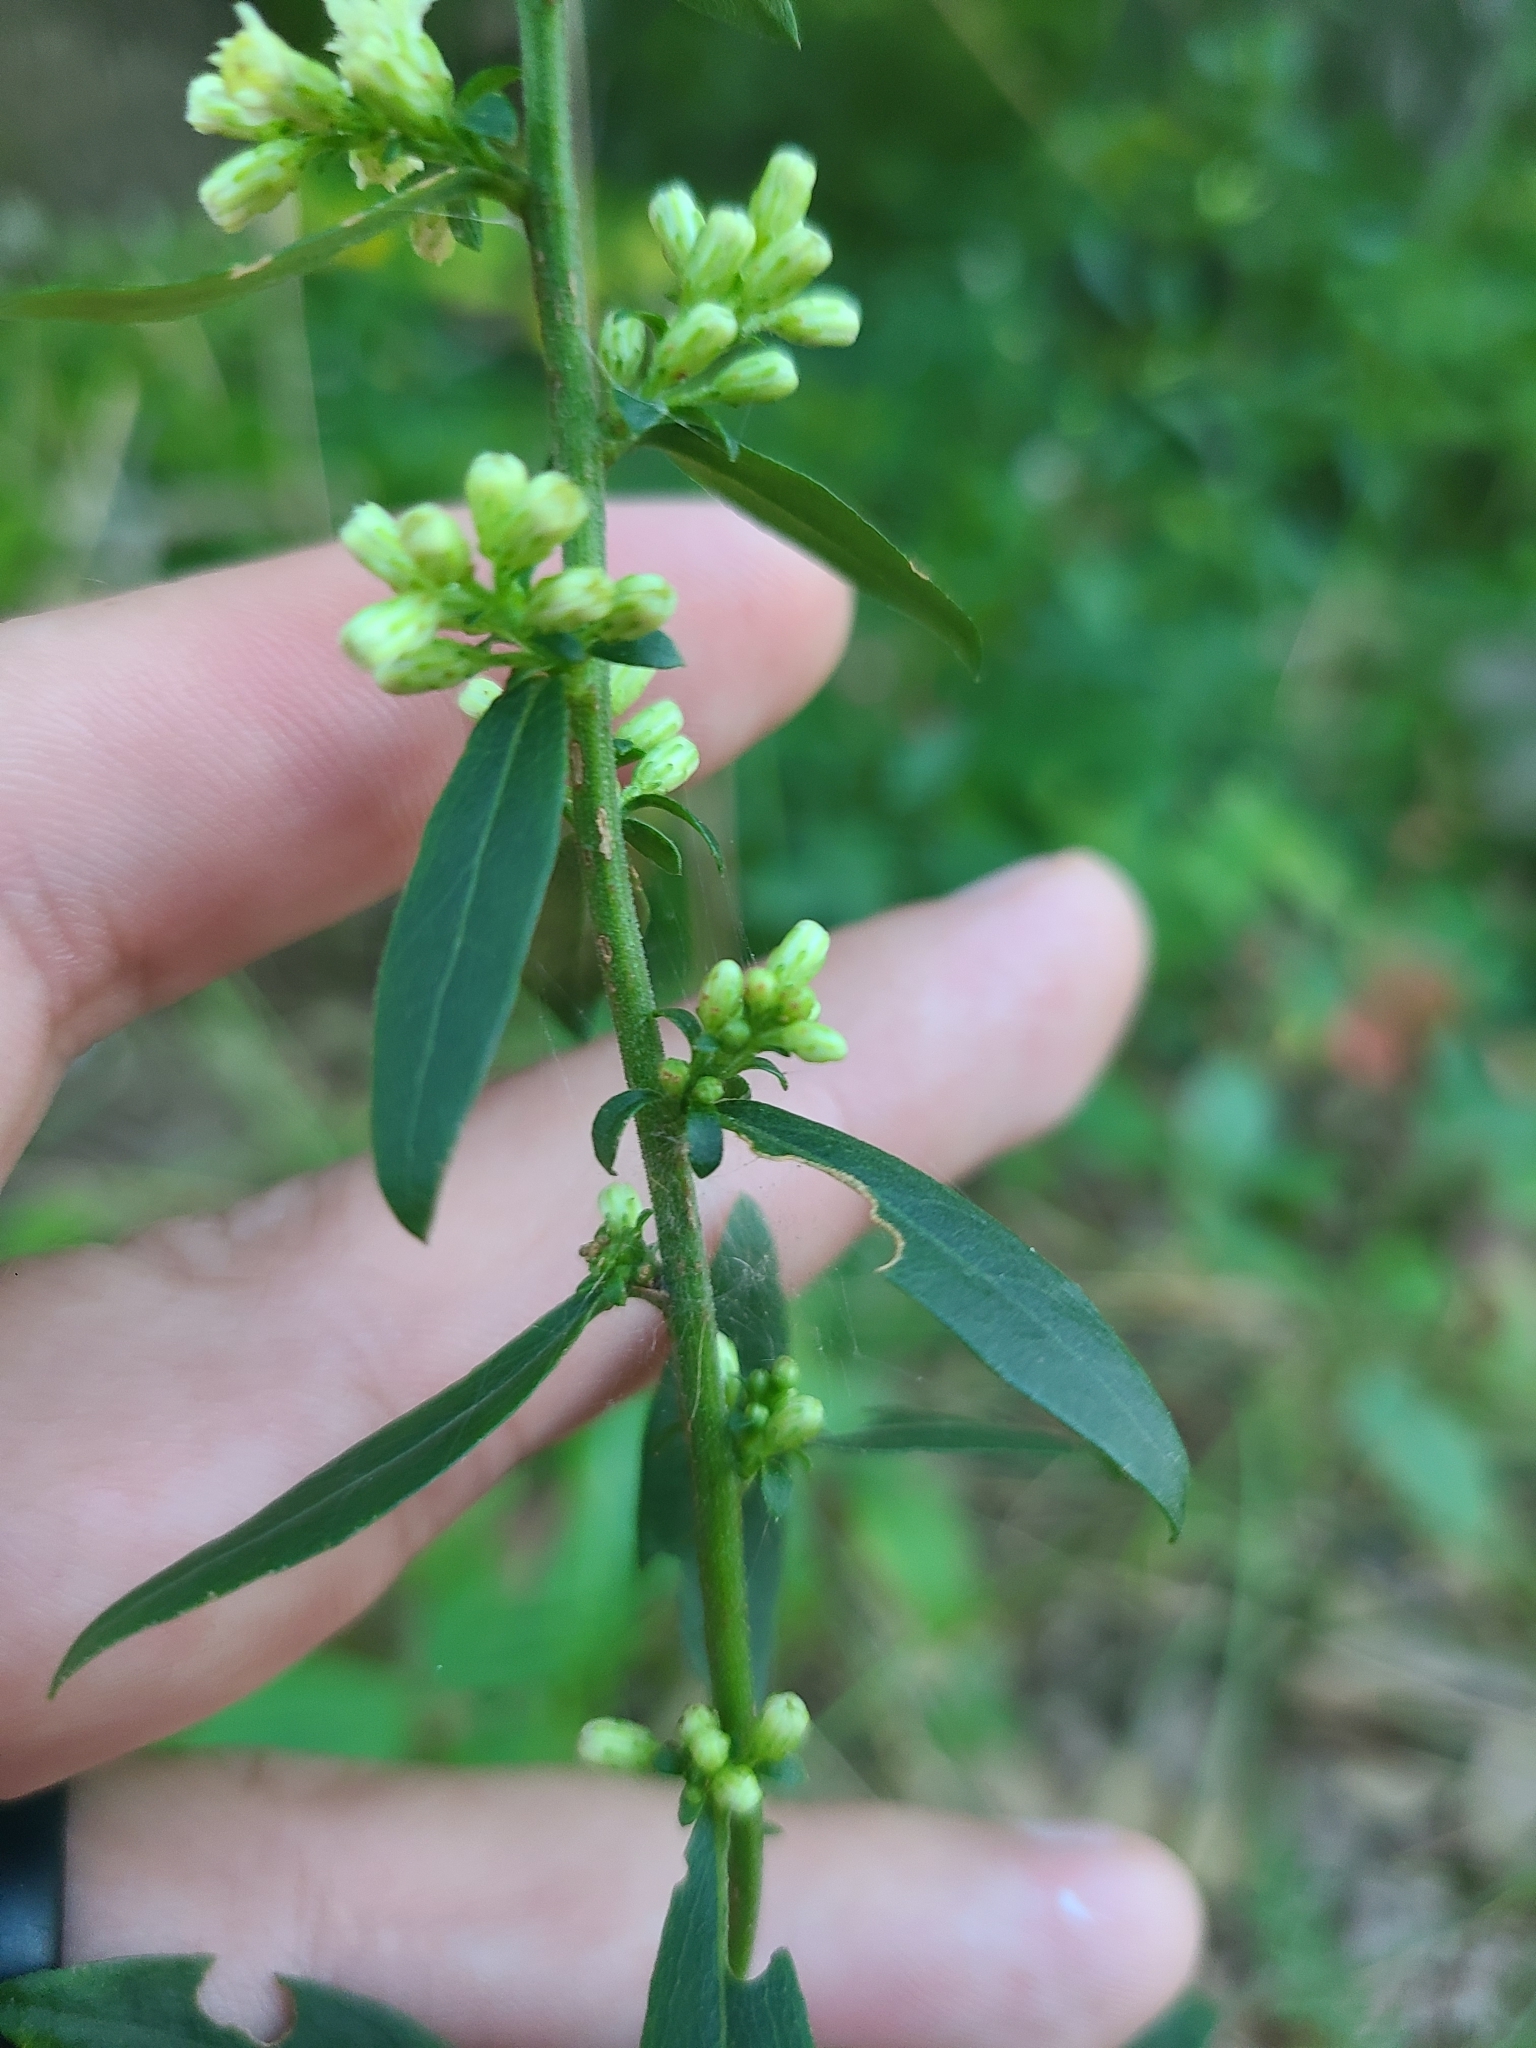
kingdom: Plantae
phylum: Tracheophyta
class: Magnoliopsida
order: Asterales
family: Asteraceae
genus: Solidago
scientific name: Solidago bicolor
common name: Silverrod
